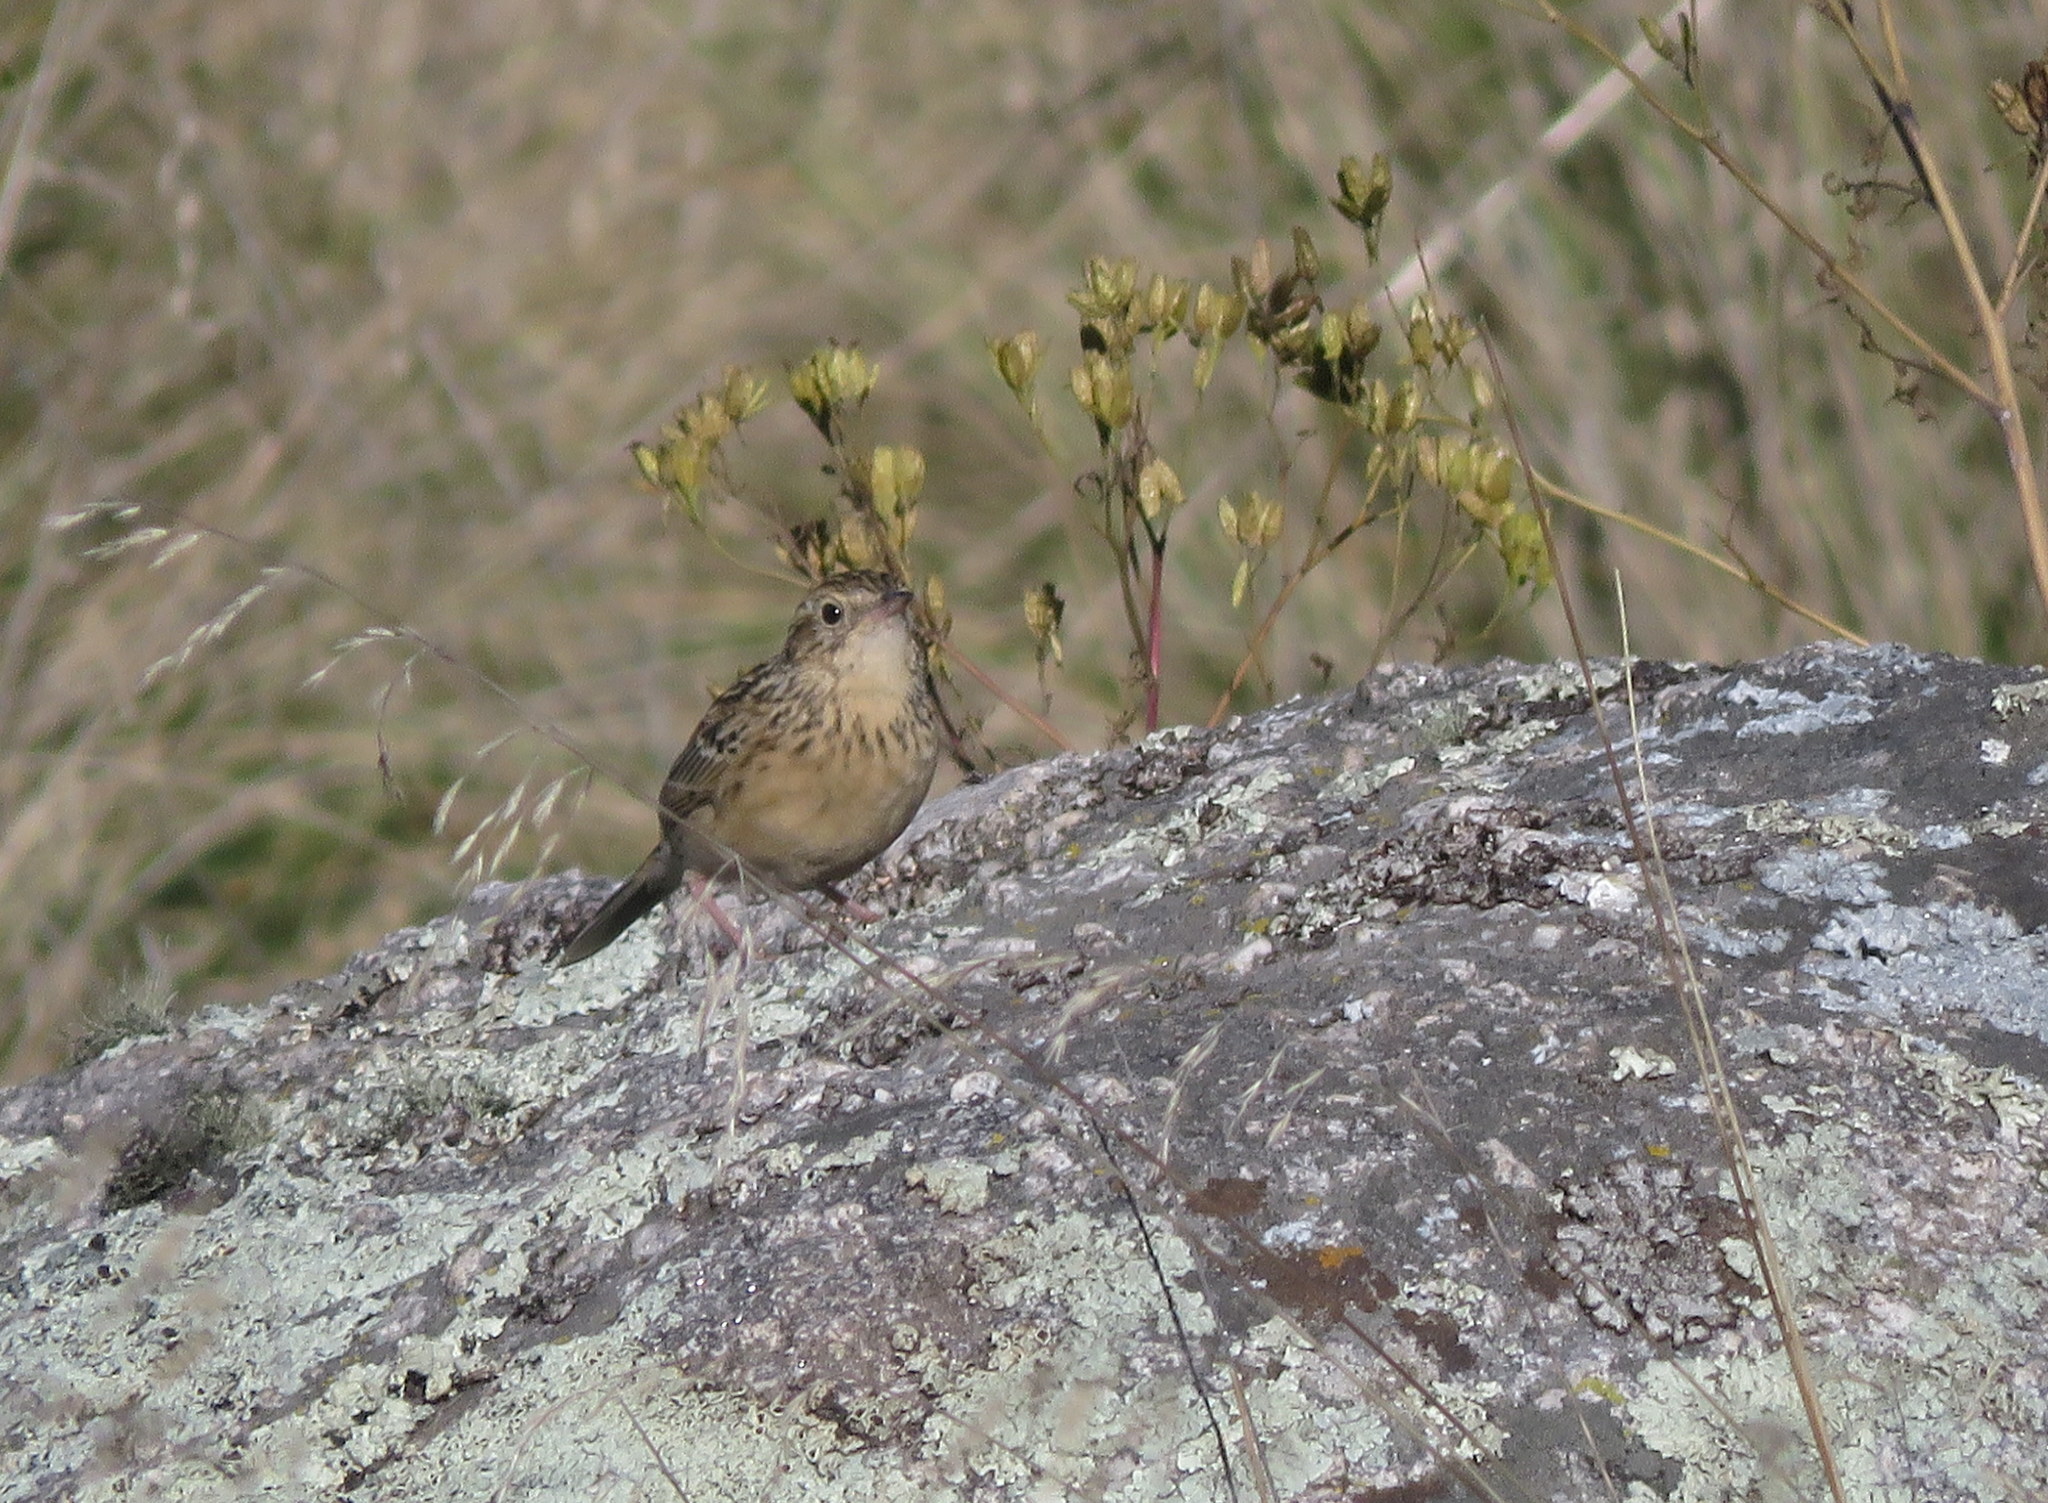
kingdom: Animalia
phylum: Chordata
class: Aves
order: Passeriformes
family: Motacillidae
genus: Anthus
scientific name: Anthus hellmayri
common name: Hellmayr's pipit
